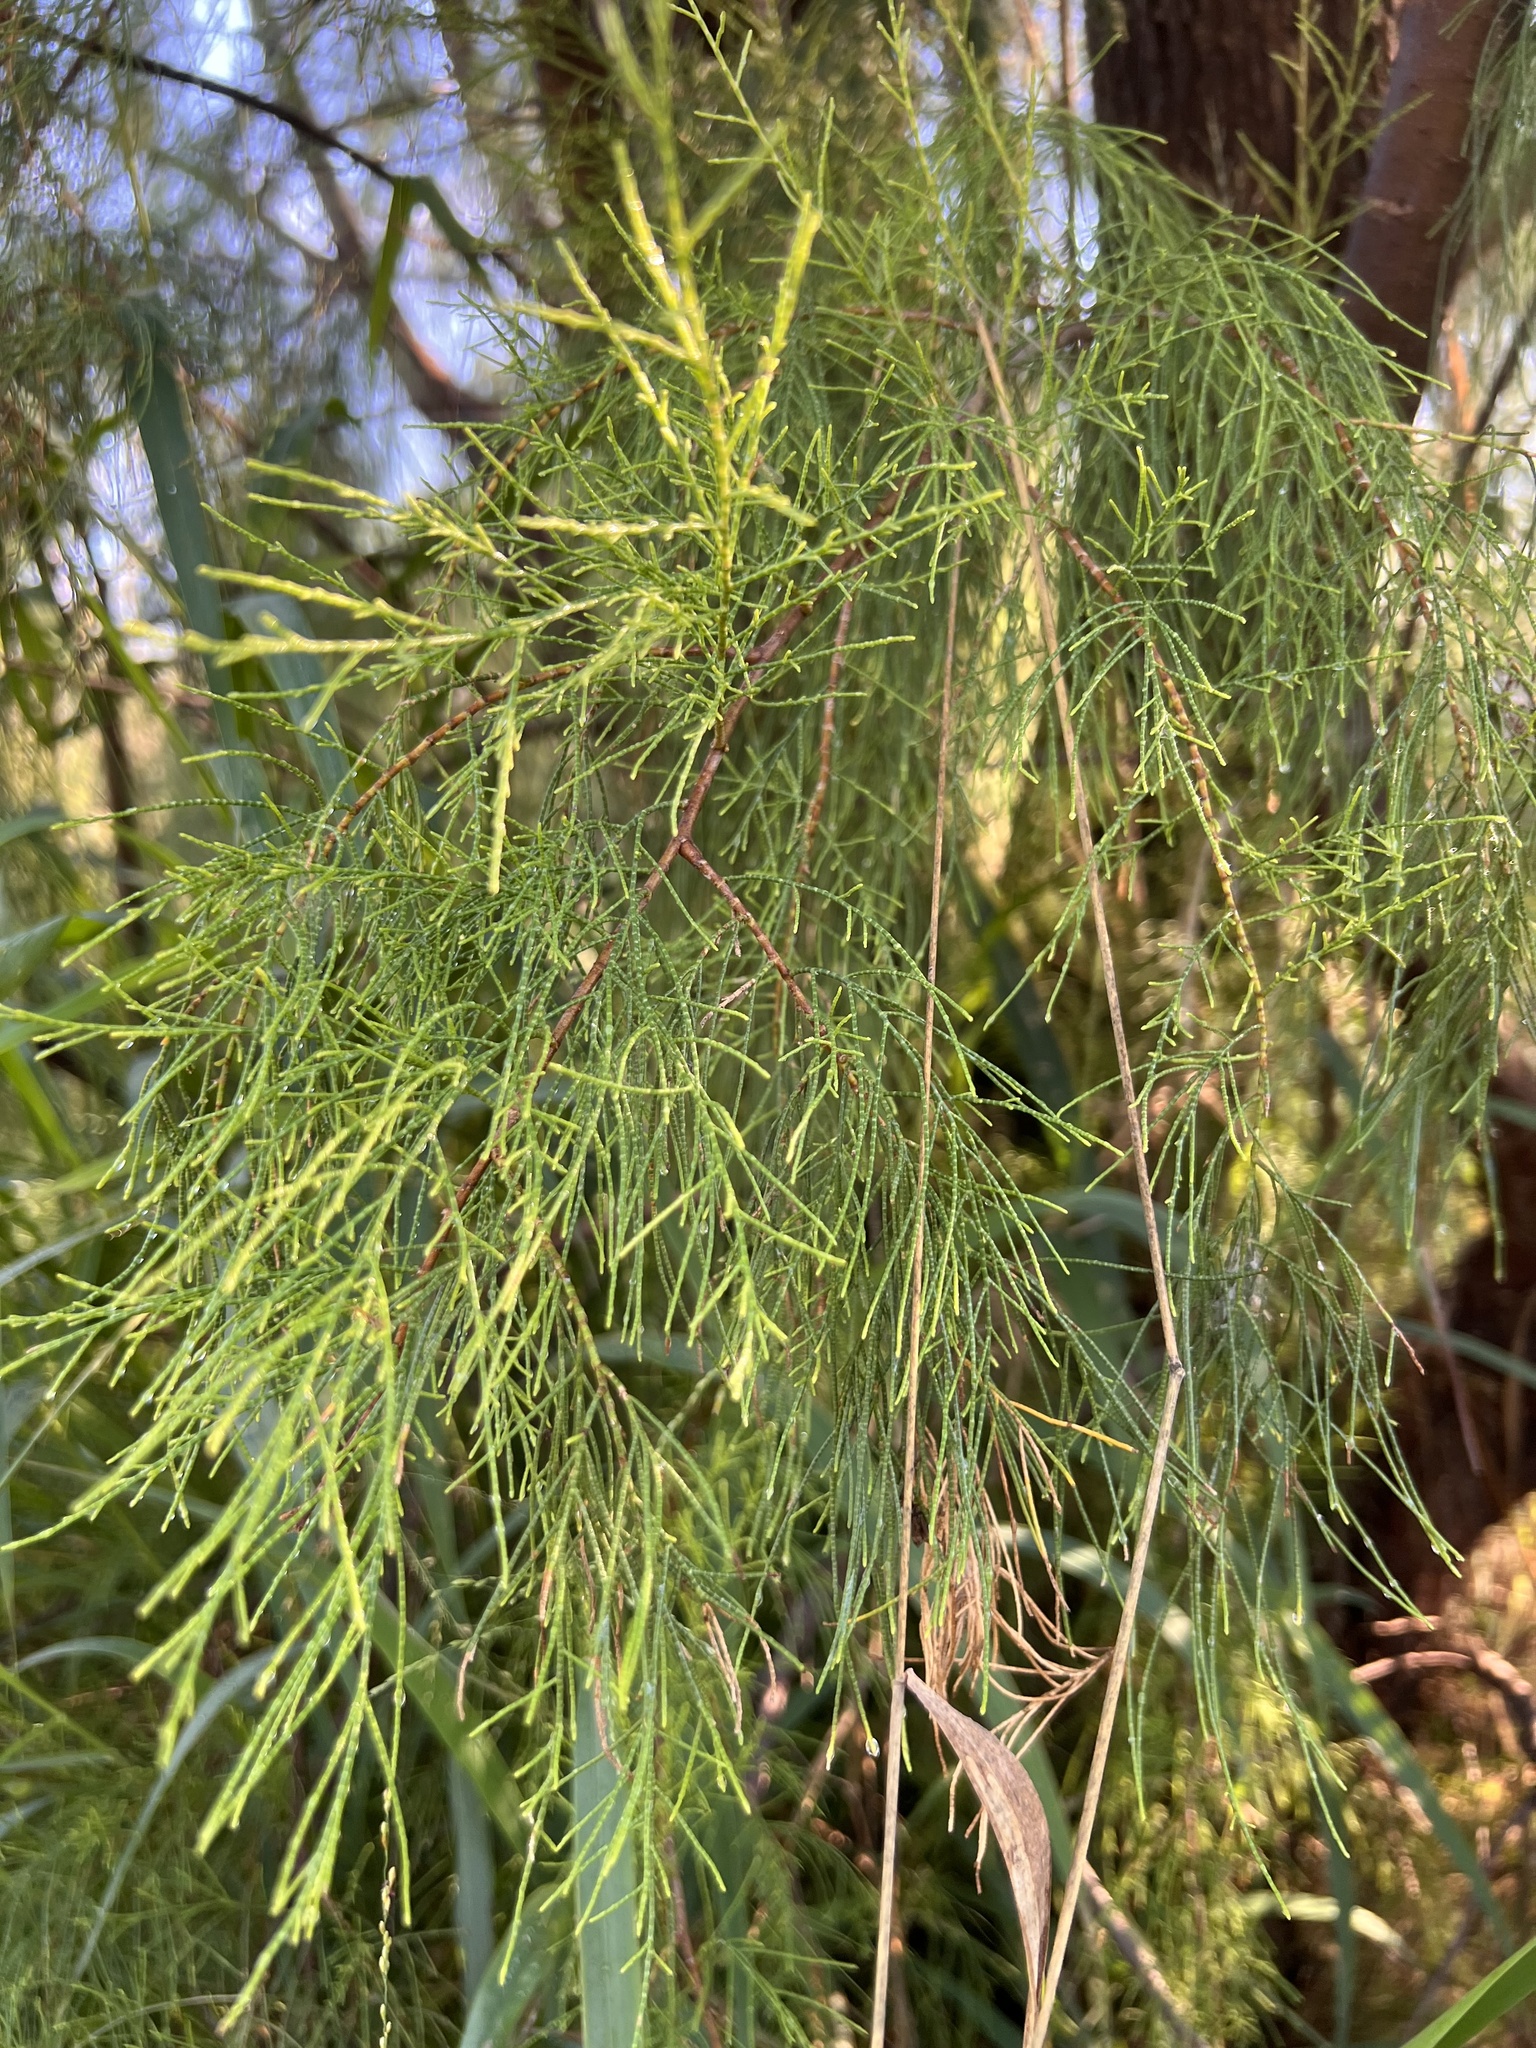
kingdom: Plantae
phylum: Tracheophyta
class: Magnoliopsida
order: Caryophyllales
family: Tamaricaceae
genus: Tamarix
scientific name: Tamarix aphylla
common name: Athel tamarisk
